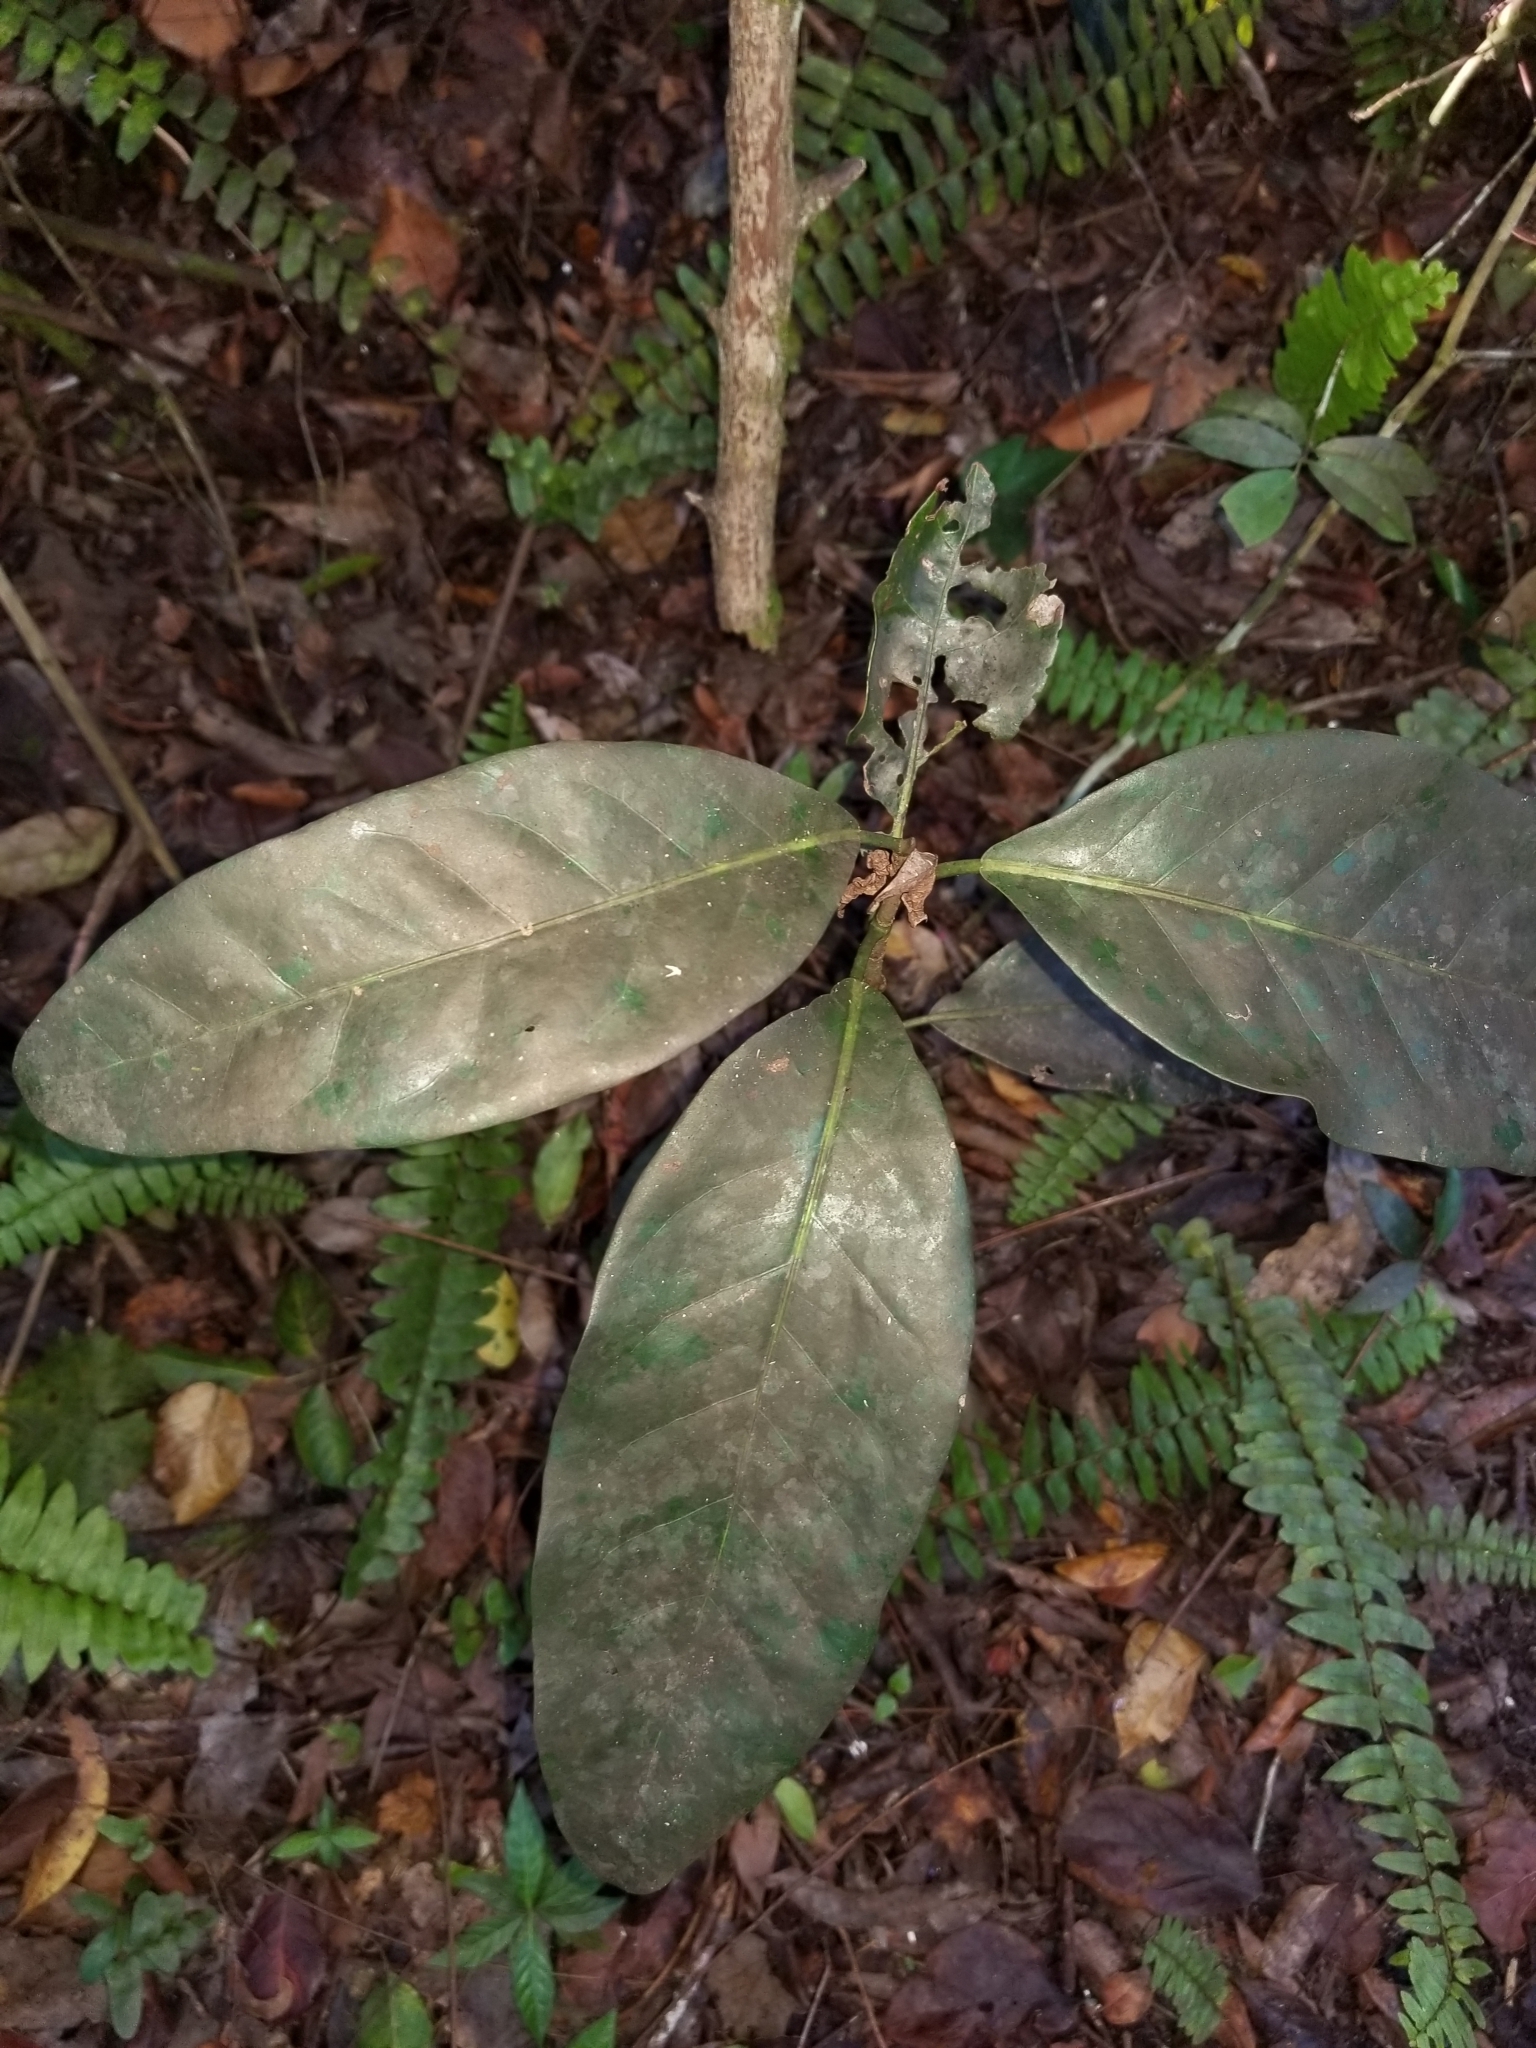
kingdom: Plantae
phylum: Tracheophyta
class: Magnoliopsida
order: Caryophyllales
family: Polygonaceae
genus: Coccoloba
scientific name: Coccoloba diversifolia
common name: Pigeon-plum
